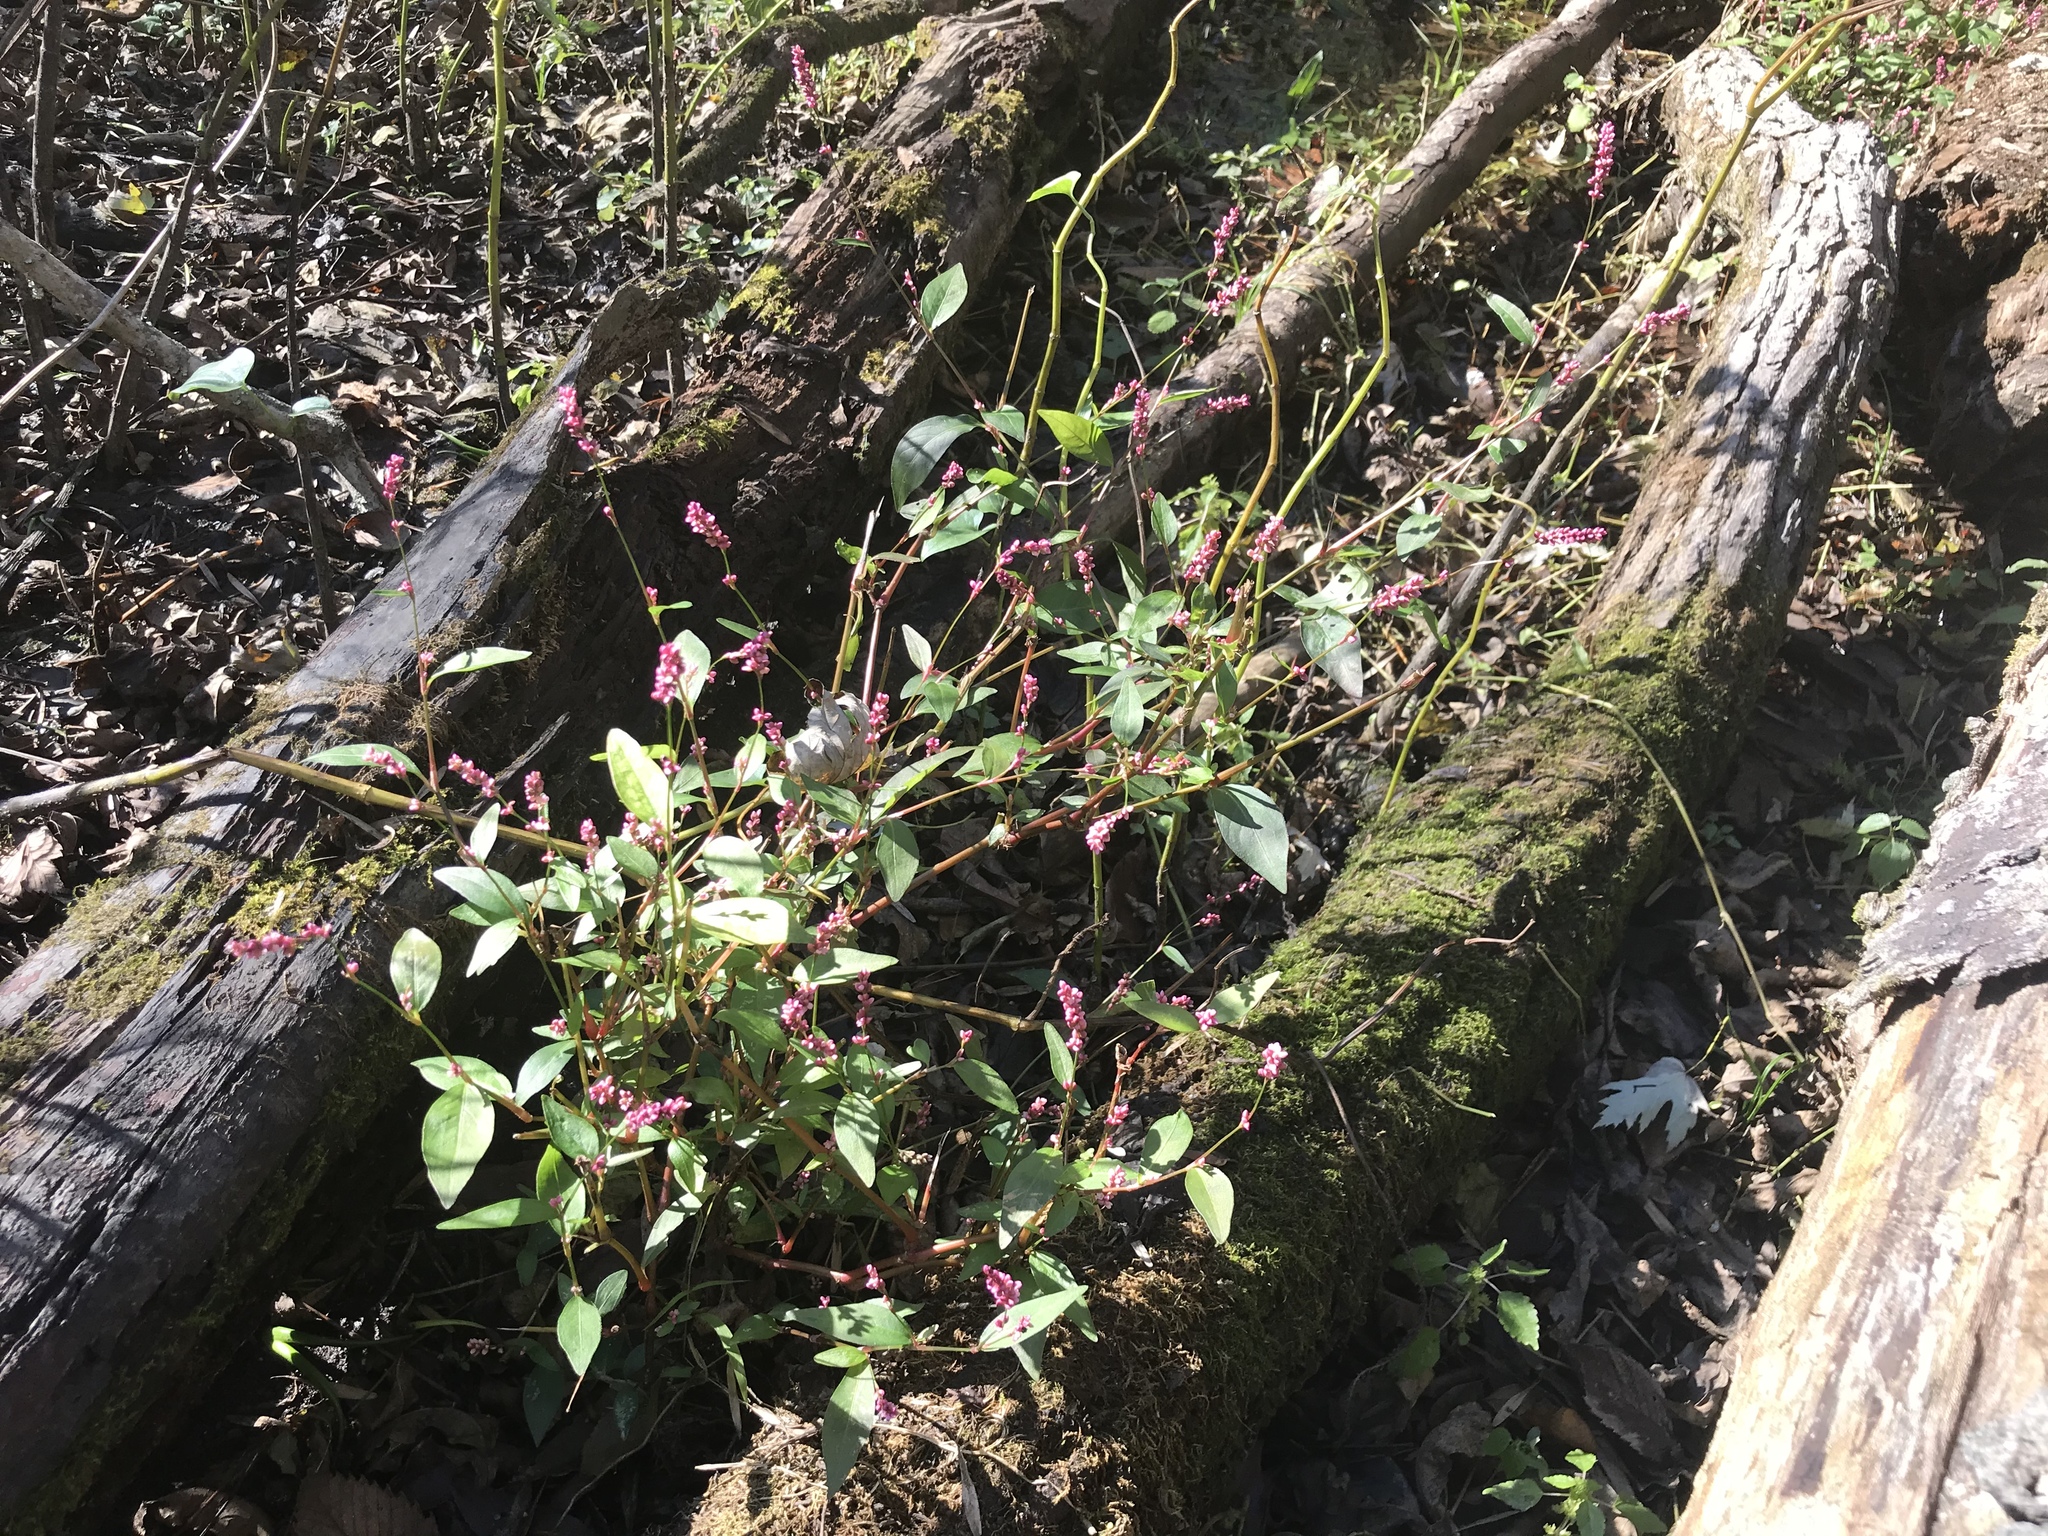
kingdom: Plantae
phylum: Tracheophyta
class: Magnoliopsida
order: Caryophyllales
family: Polygonaceae
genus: Persicaria
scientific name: Persicaria longiseta
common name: Bristly lady's-thumb
